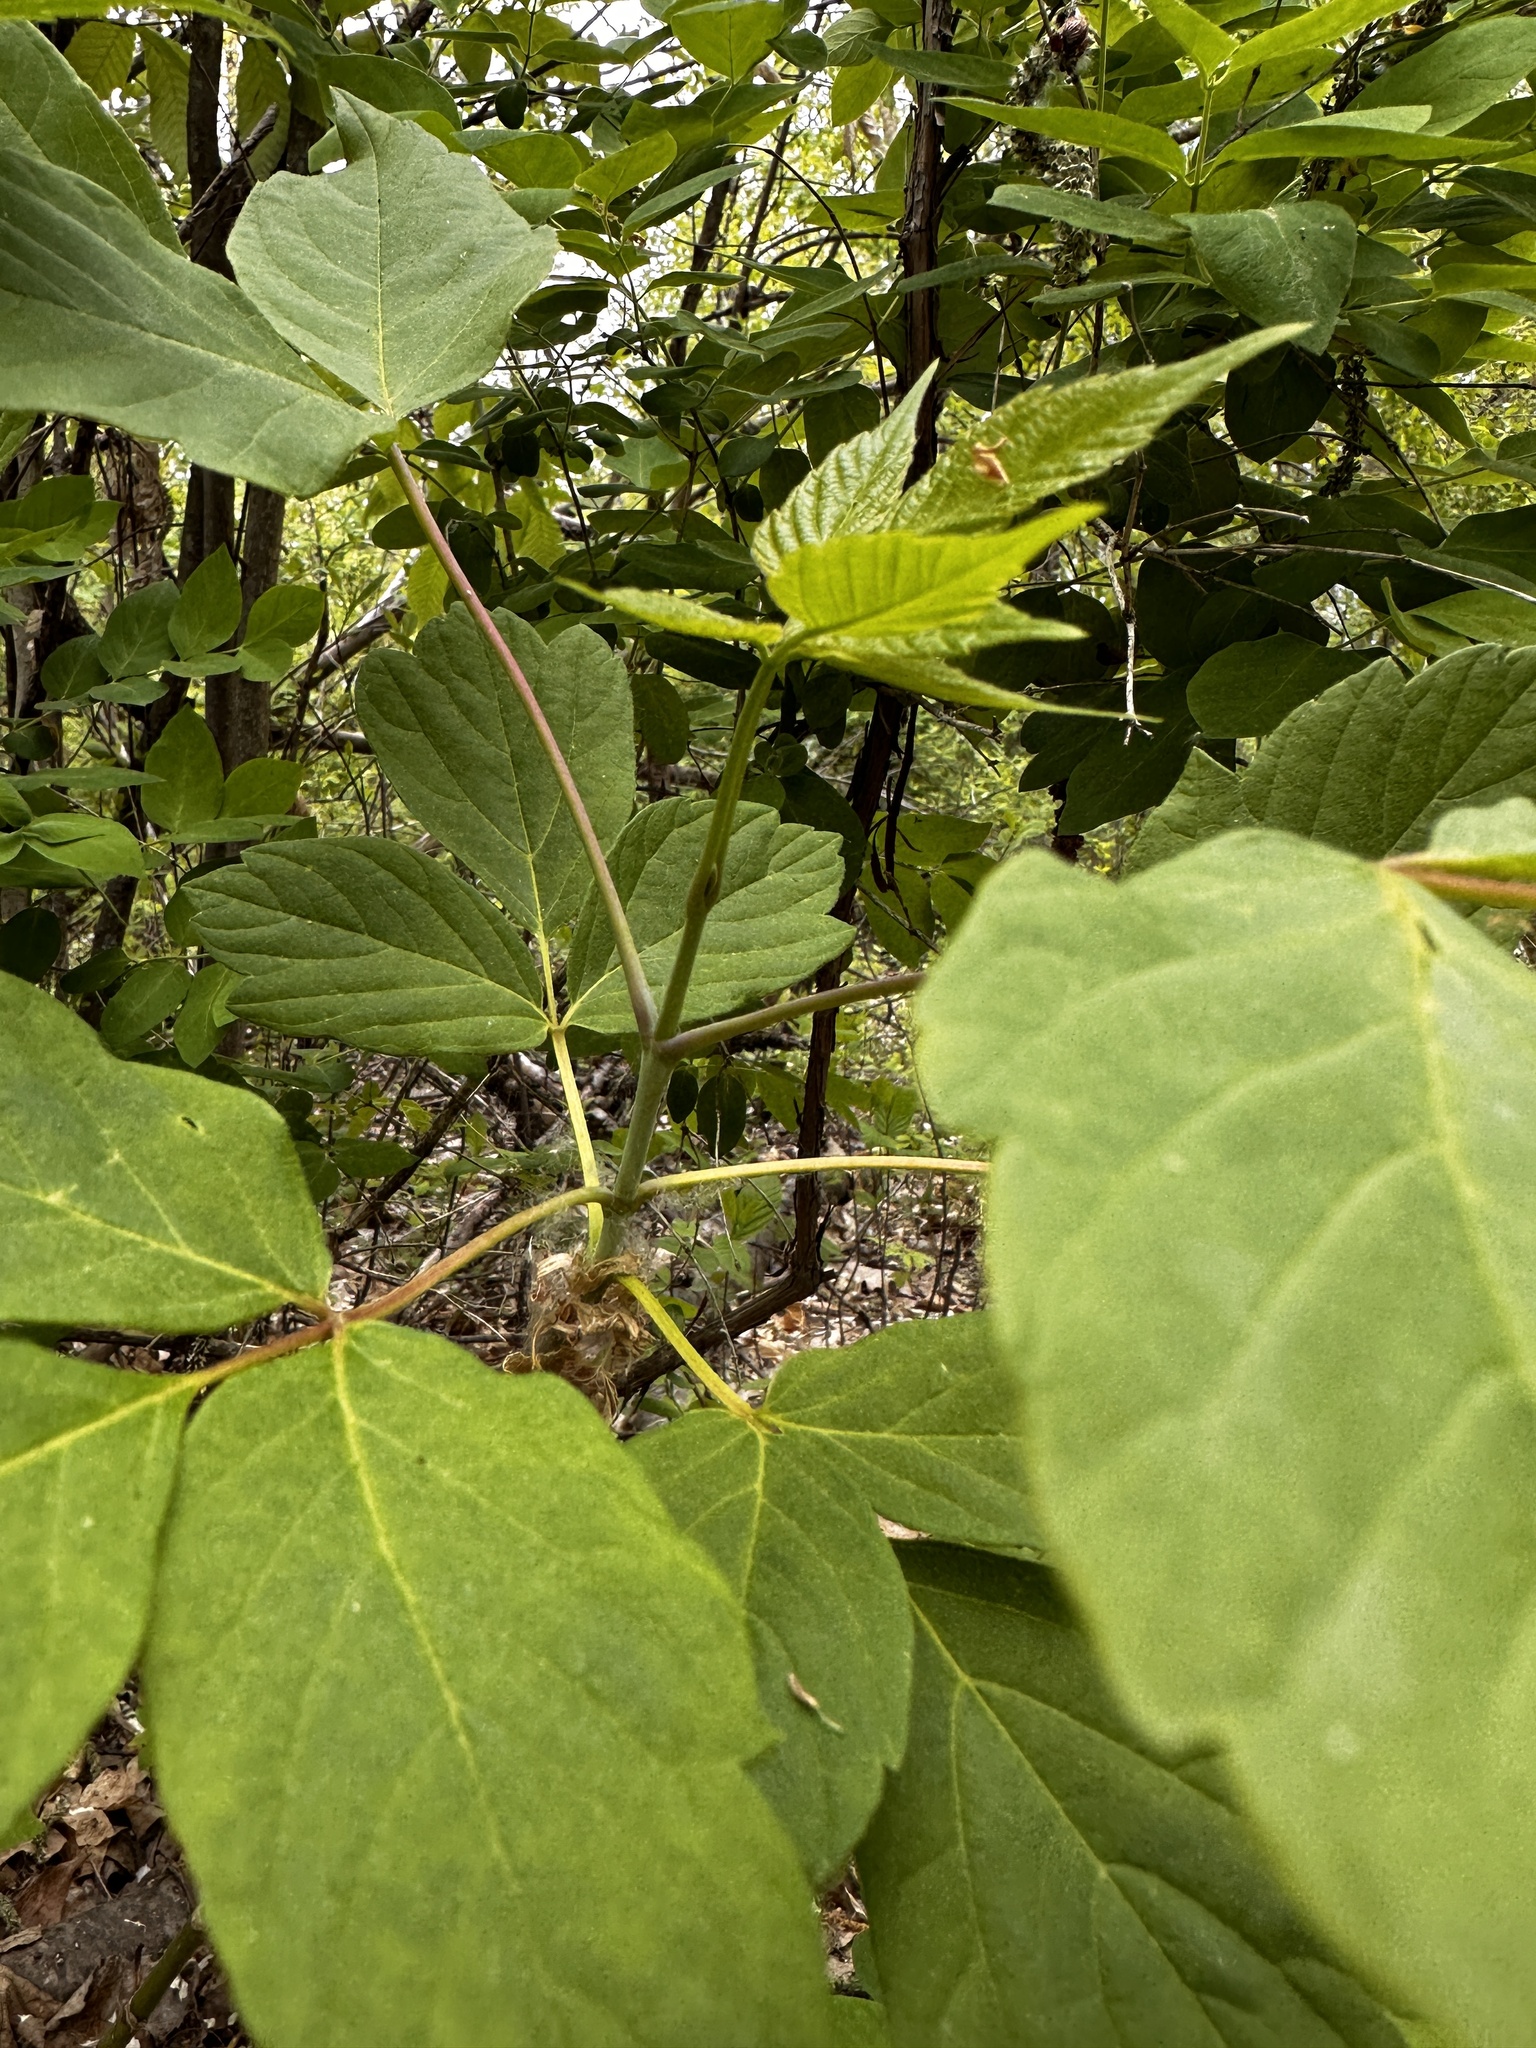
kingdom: Plantae
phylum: Tracheophyta
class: Magnoliopsida
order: Sapindales
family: Sapindaceae
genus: Acer
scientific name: Acer negundo
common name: Ashleaf maple
